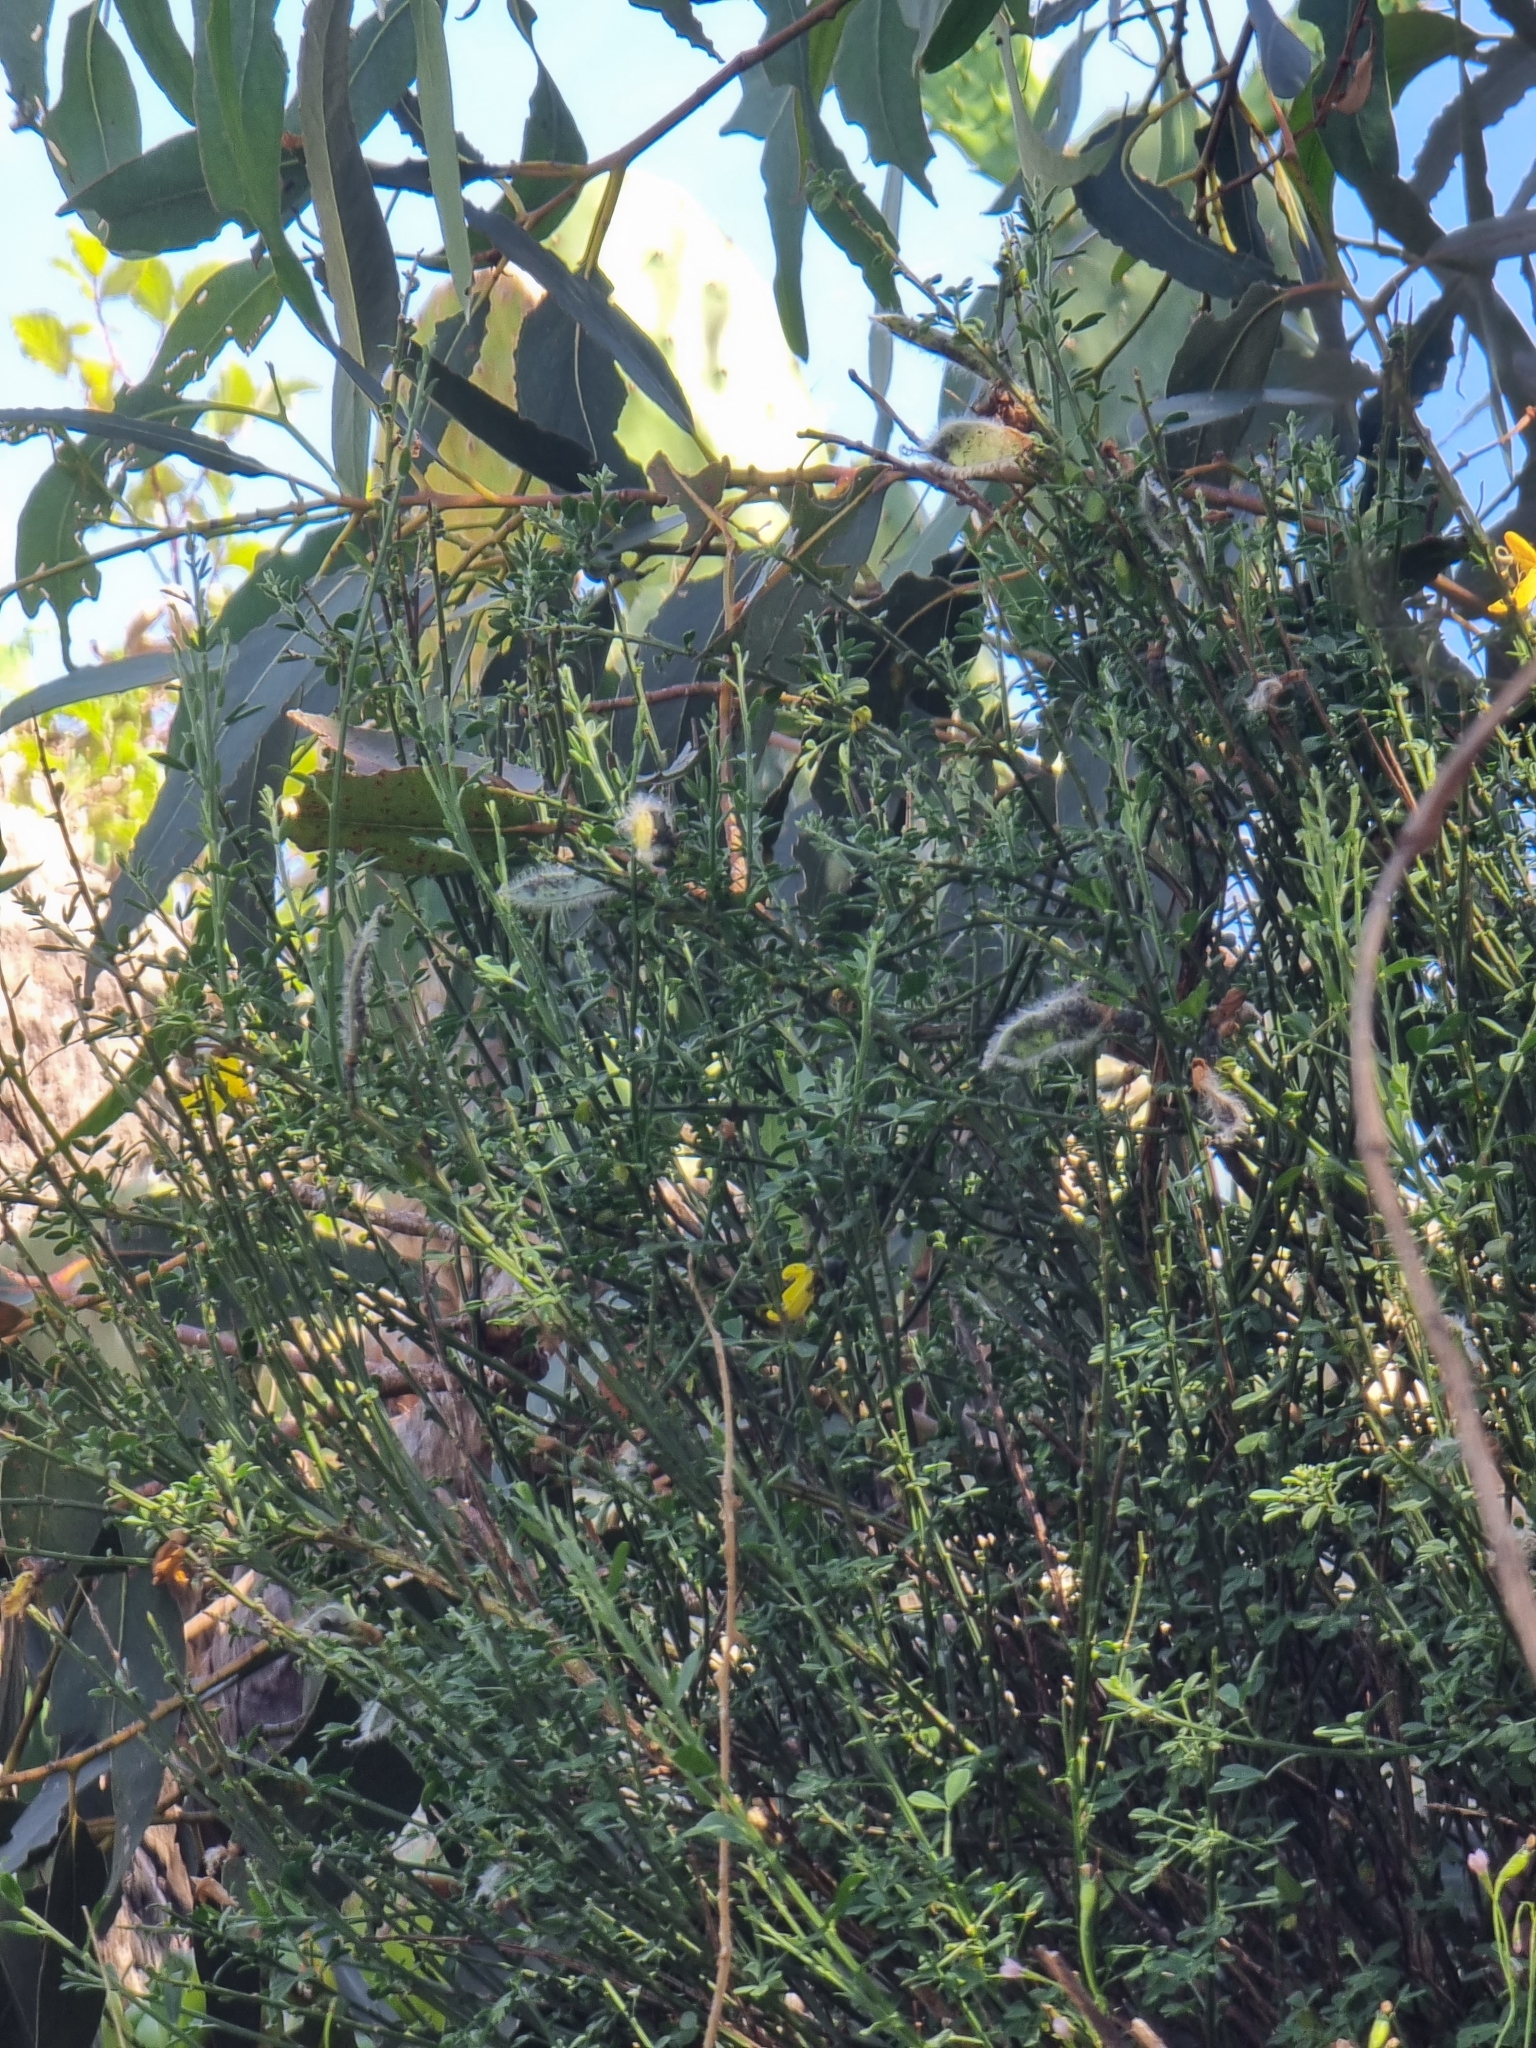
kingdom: Plantae
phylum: Tracheophyta
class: Magnoliopsida
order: Fabales
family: Fabaceae
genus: Cytisus
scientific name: Cytisus striatus
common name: Hairy-fruited broom
